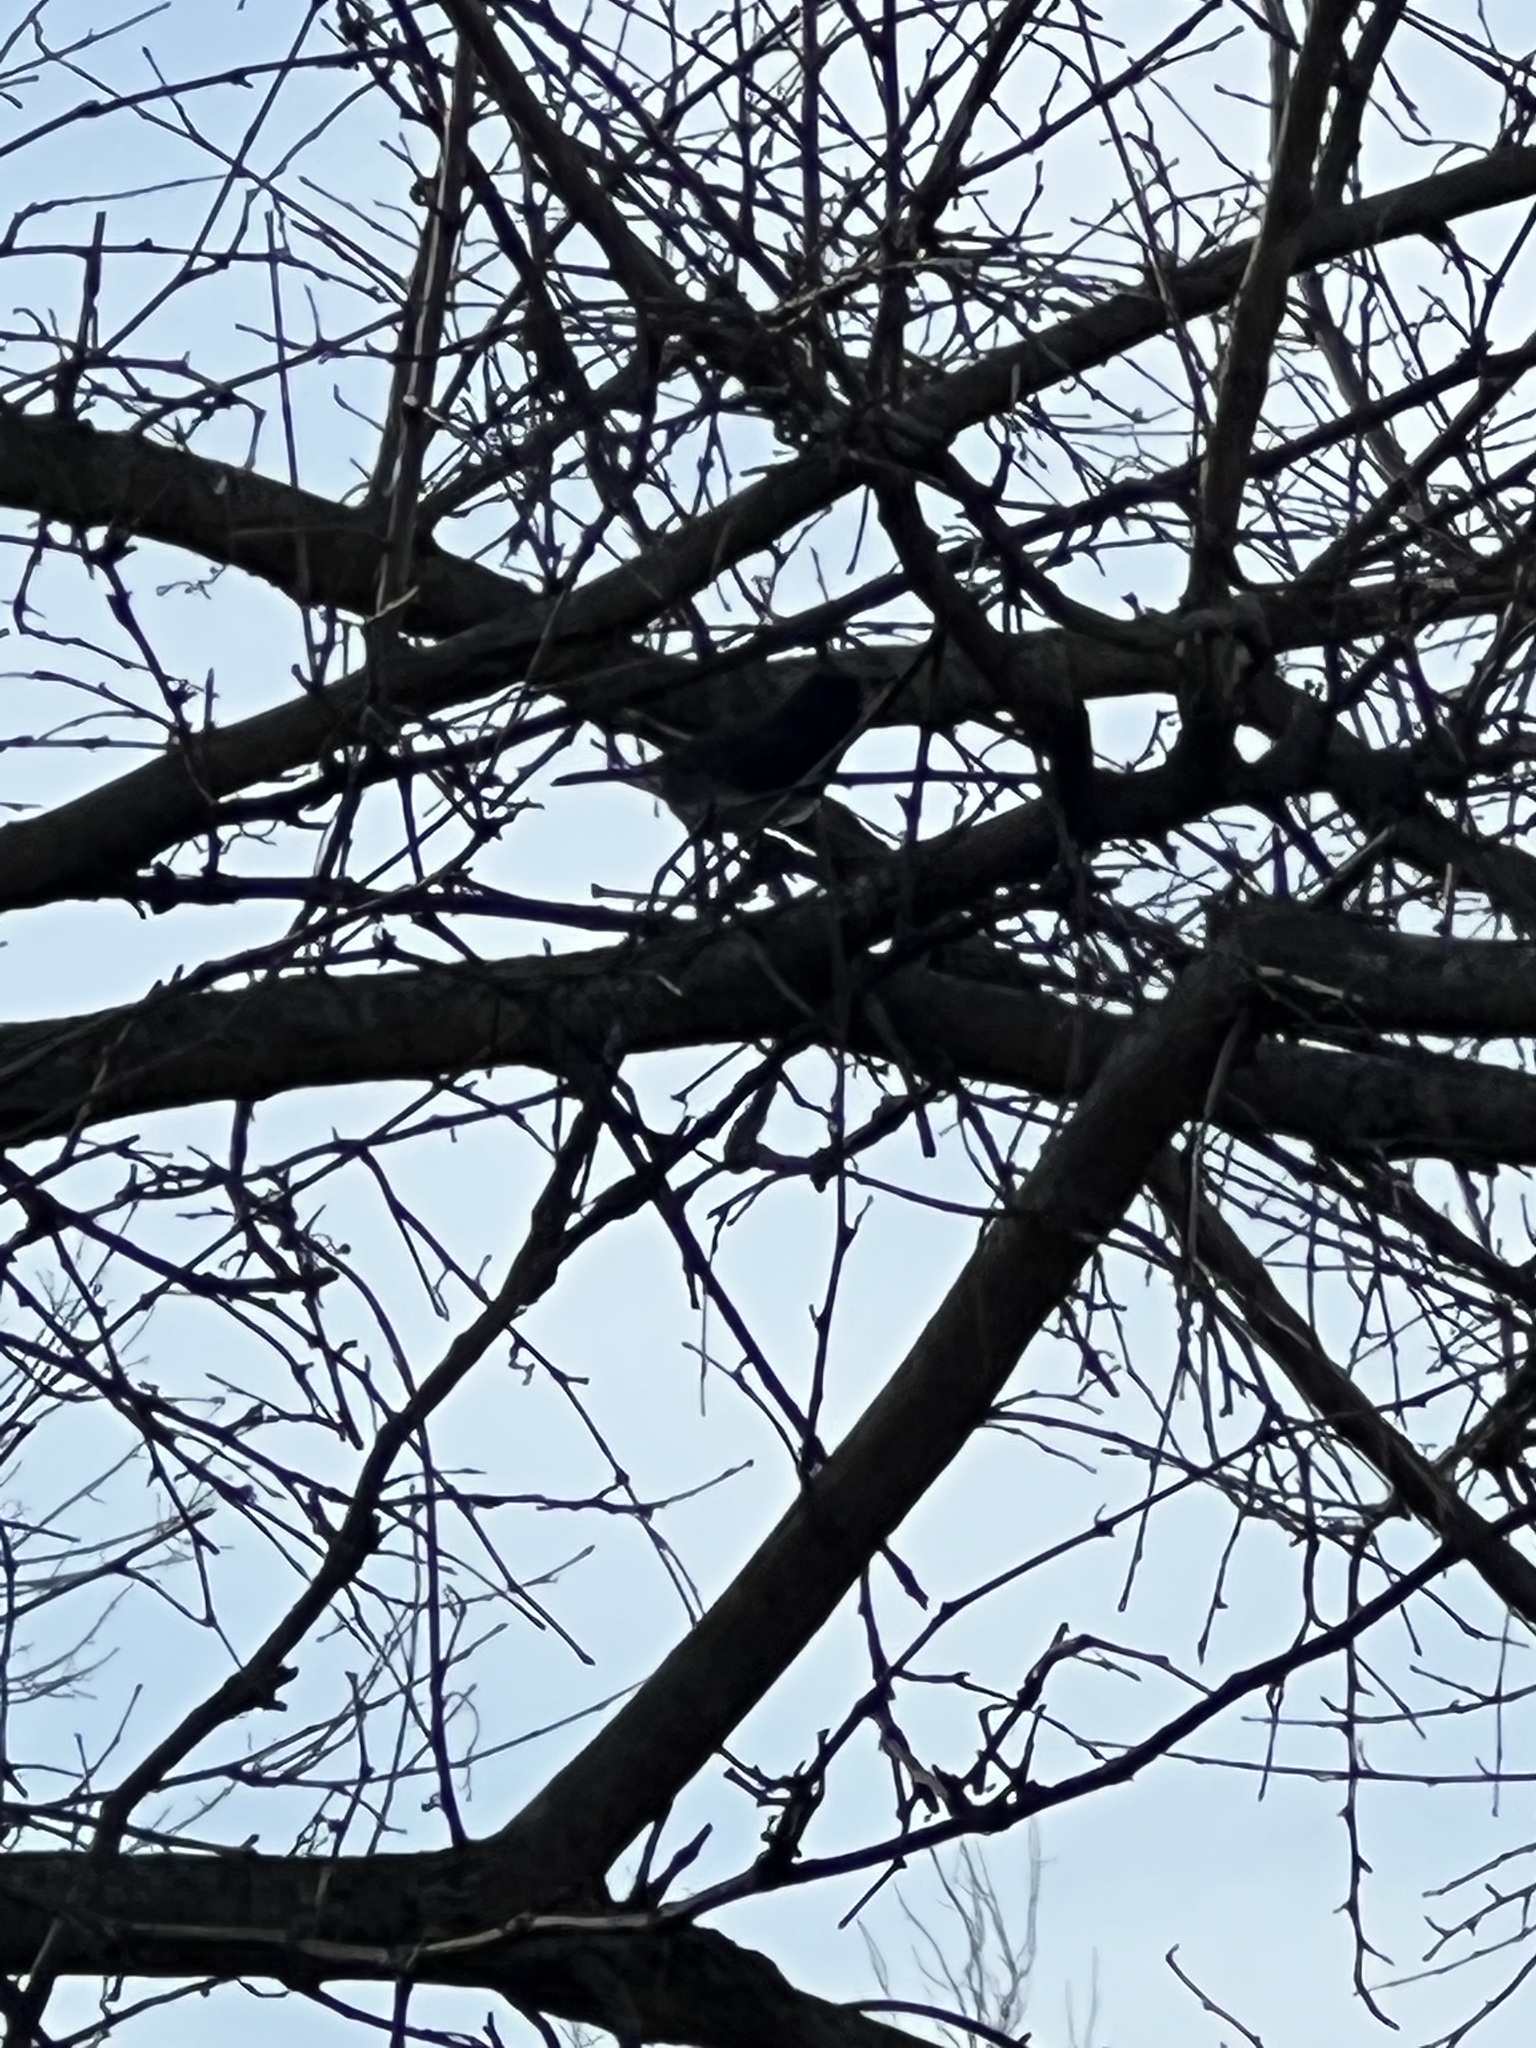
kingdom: Animalia
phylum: Chordata
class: Aves
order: Passeriformes
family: Passerellidae
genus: Junco
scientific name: Junco hyemalis
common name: Dark-eyed junco
